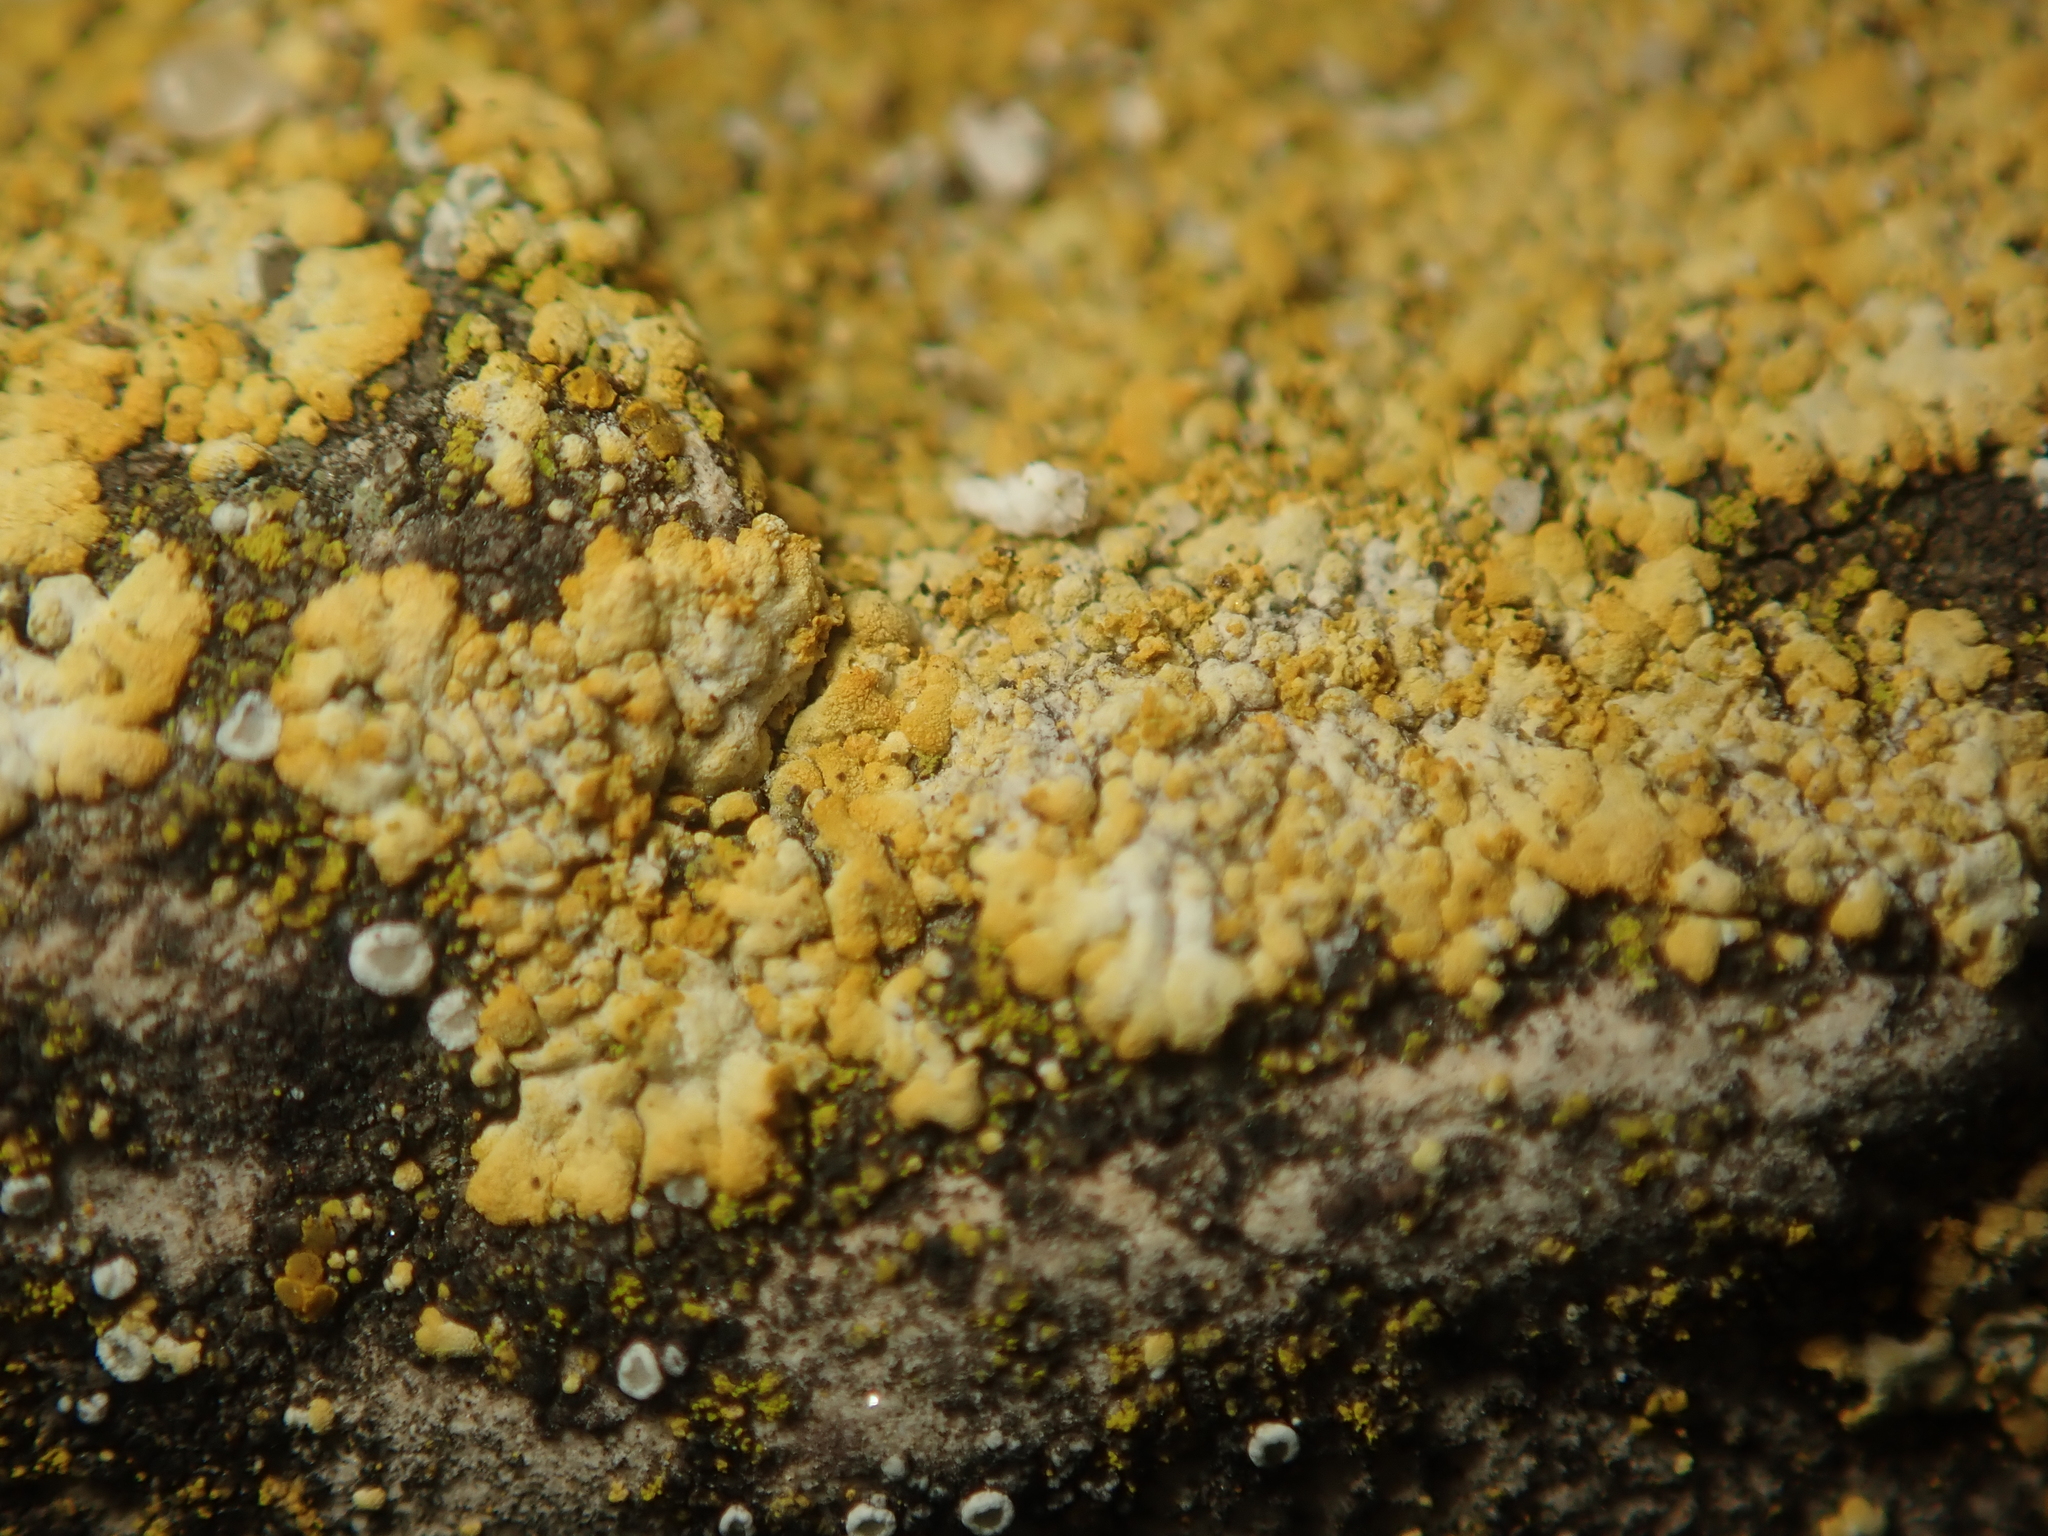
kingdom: Fungi
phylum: Ascomycota
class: Lecanoromycetes
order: Teloschistales
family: Teloschistaceae
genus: Calogaya
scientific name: Calogaya decipiens
